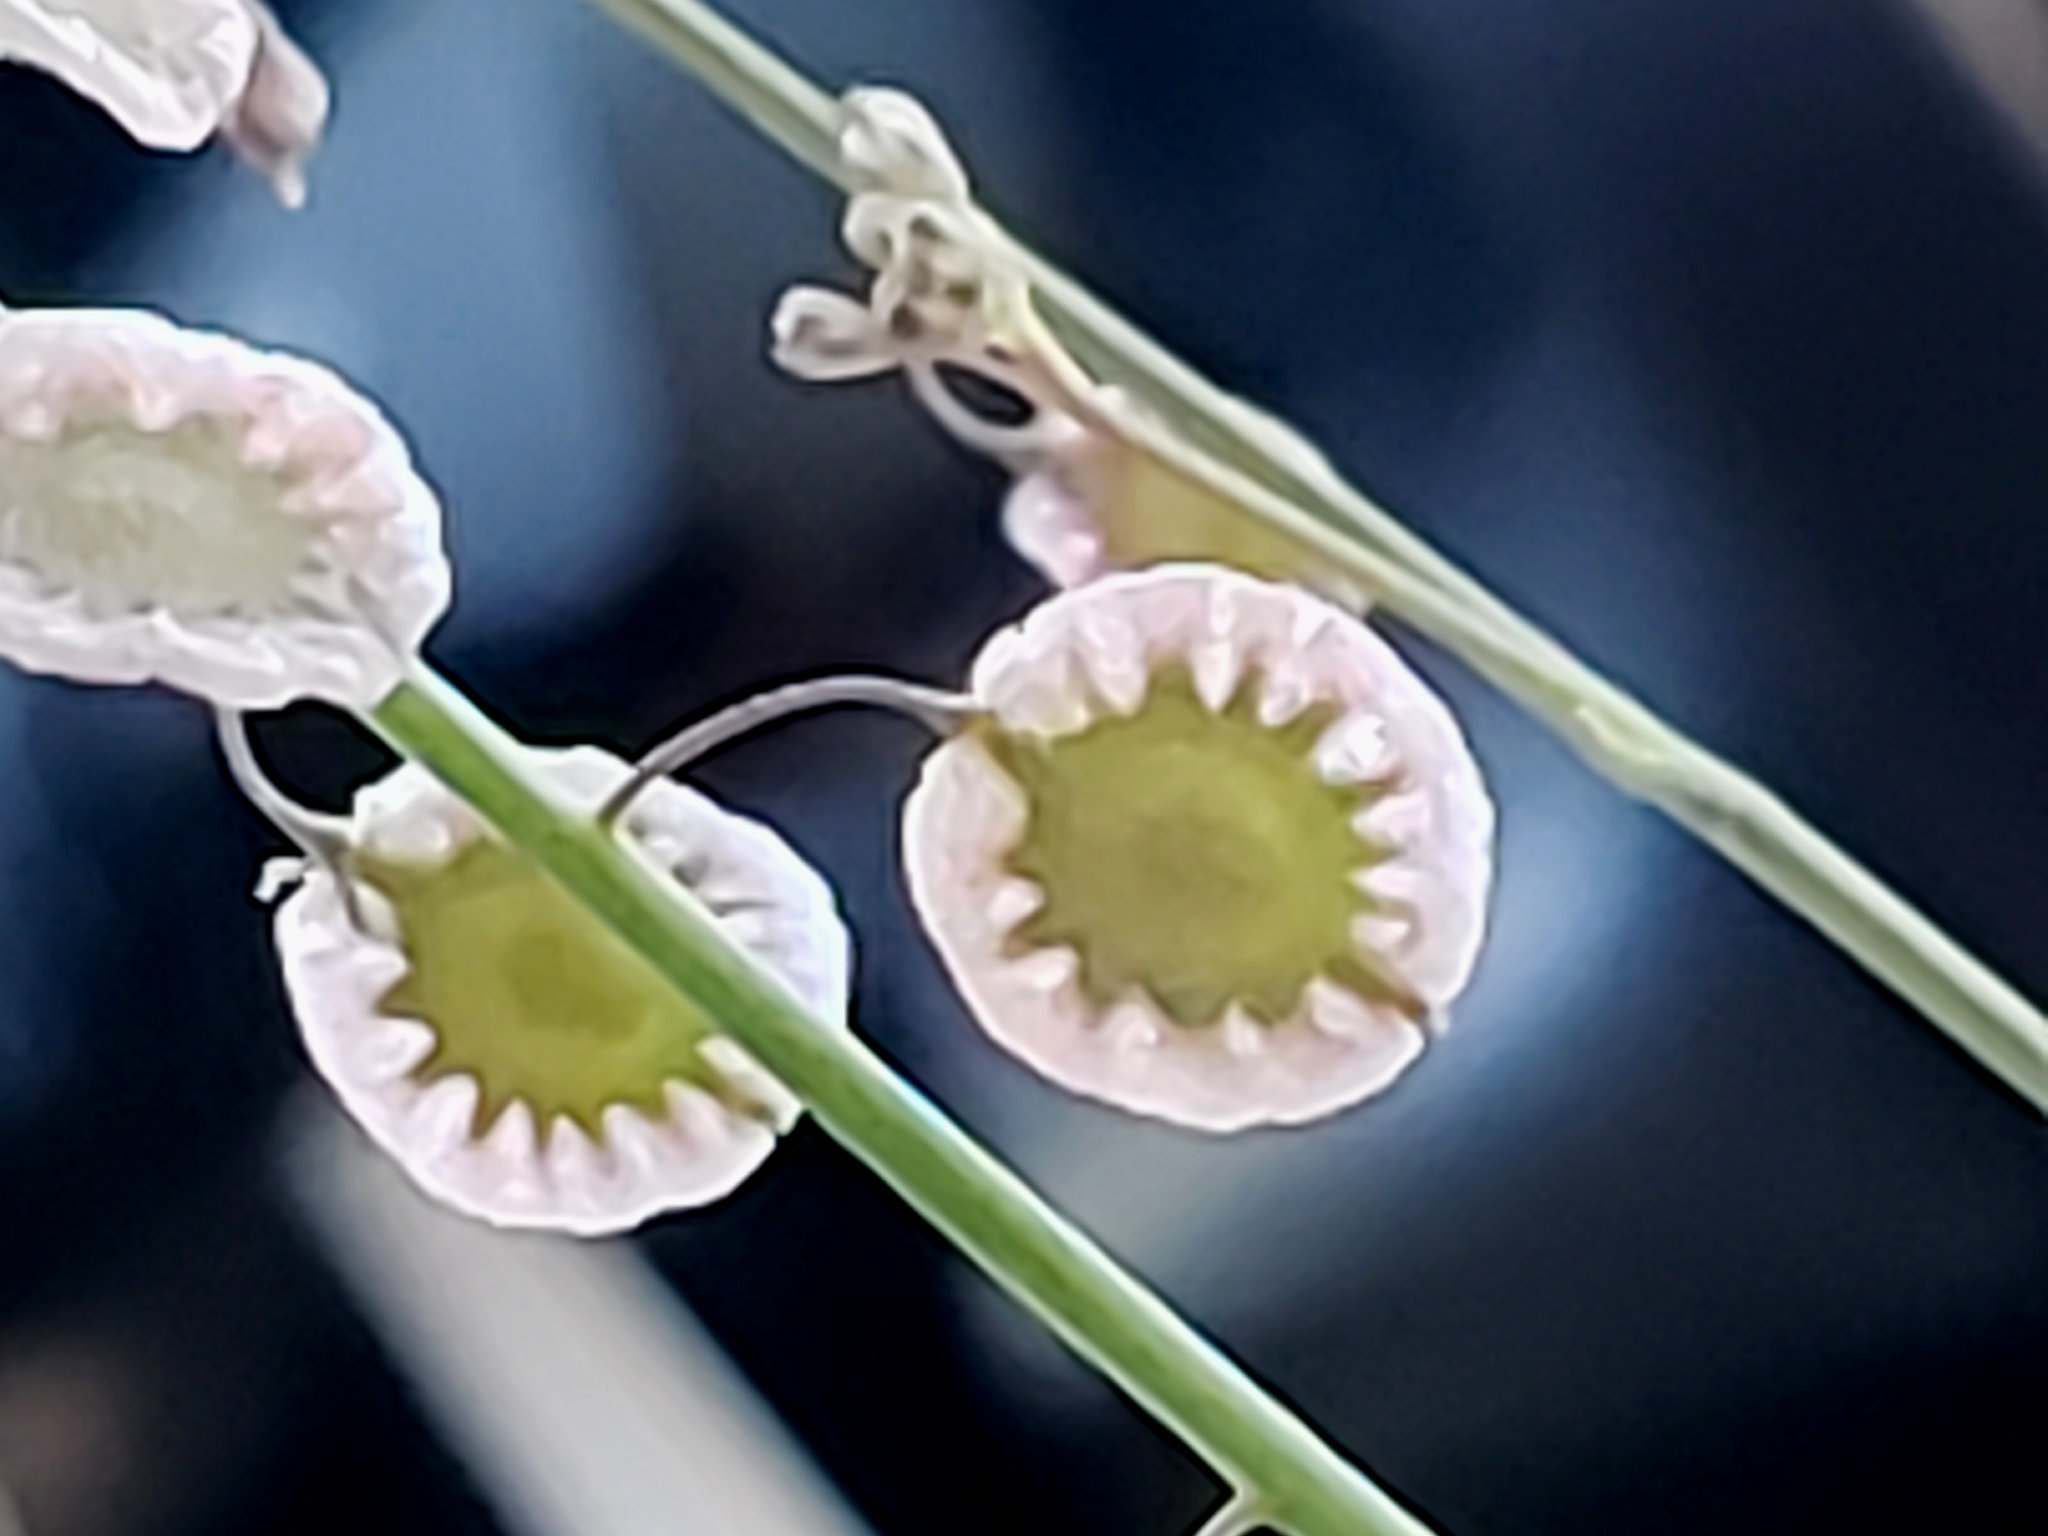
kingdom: Plantae
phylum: Tracheophyta
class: Magnoliopsida
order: Brassicales
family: Brassicaceae
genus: Thysanocarpus
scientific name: Thysanocarpus curvipes
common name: Sand fringepod
